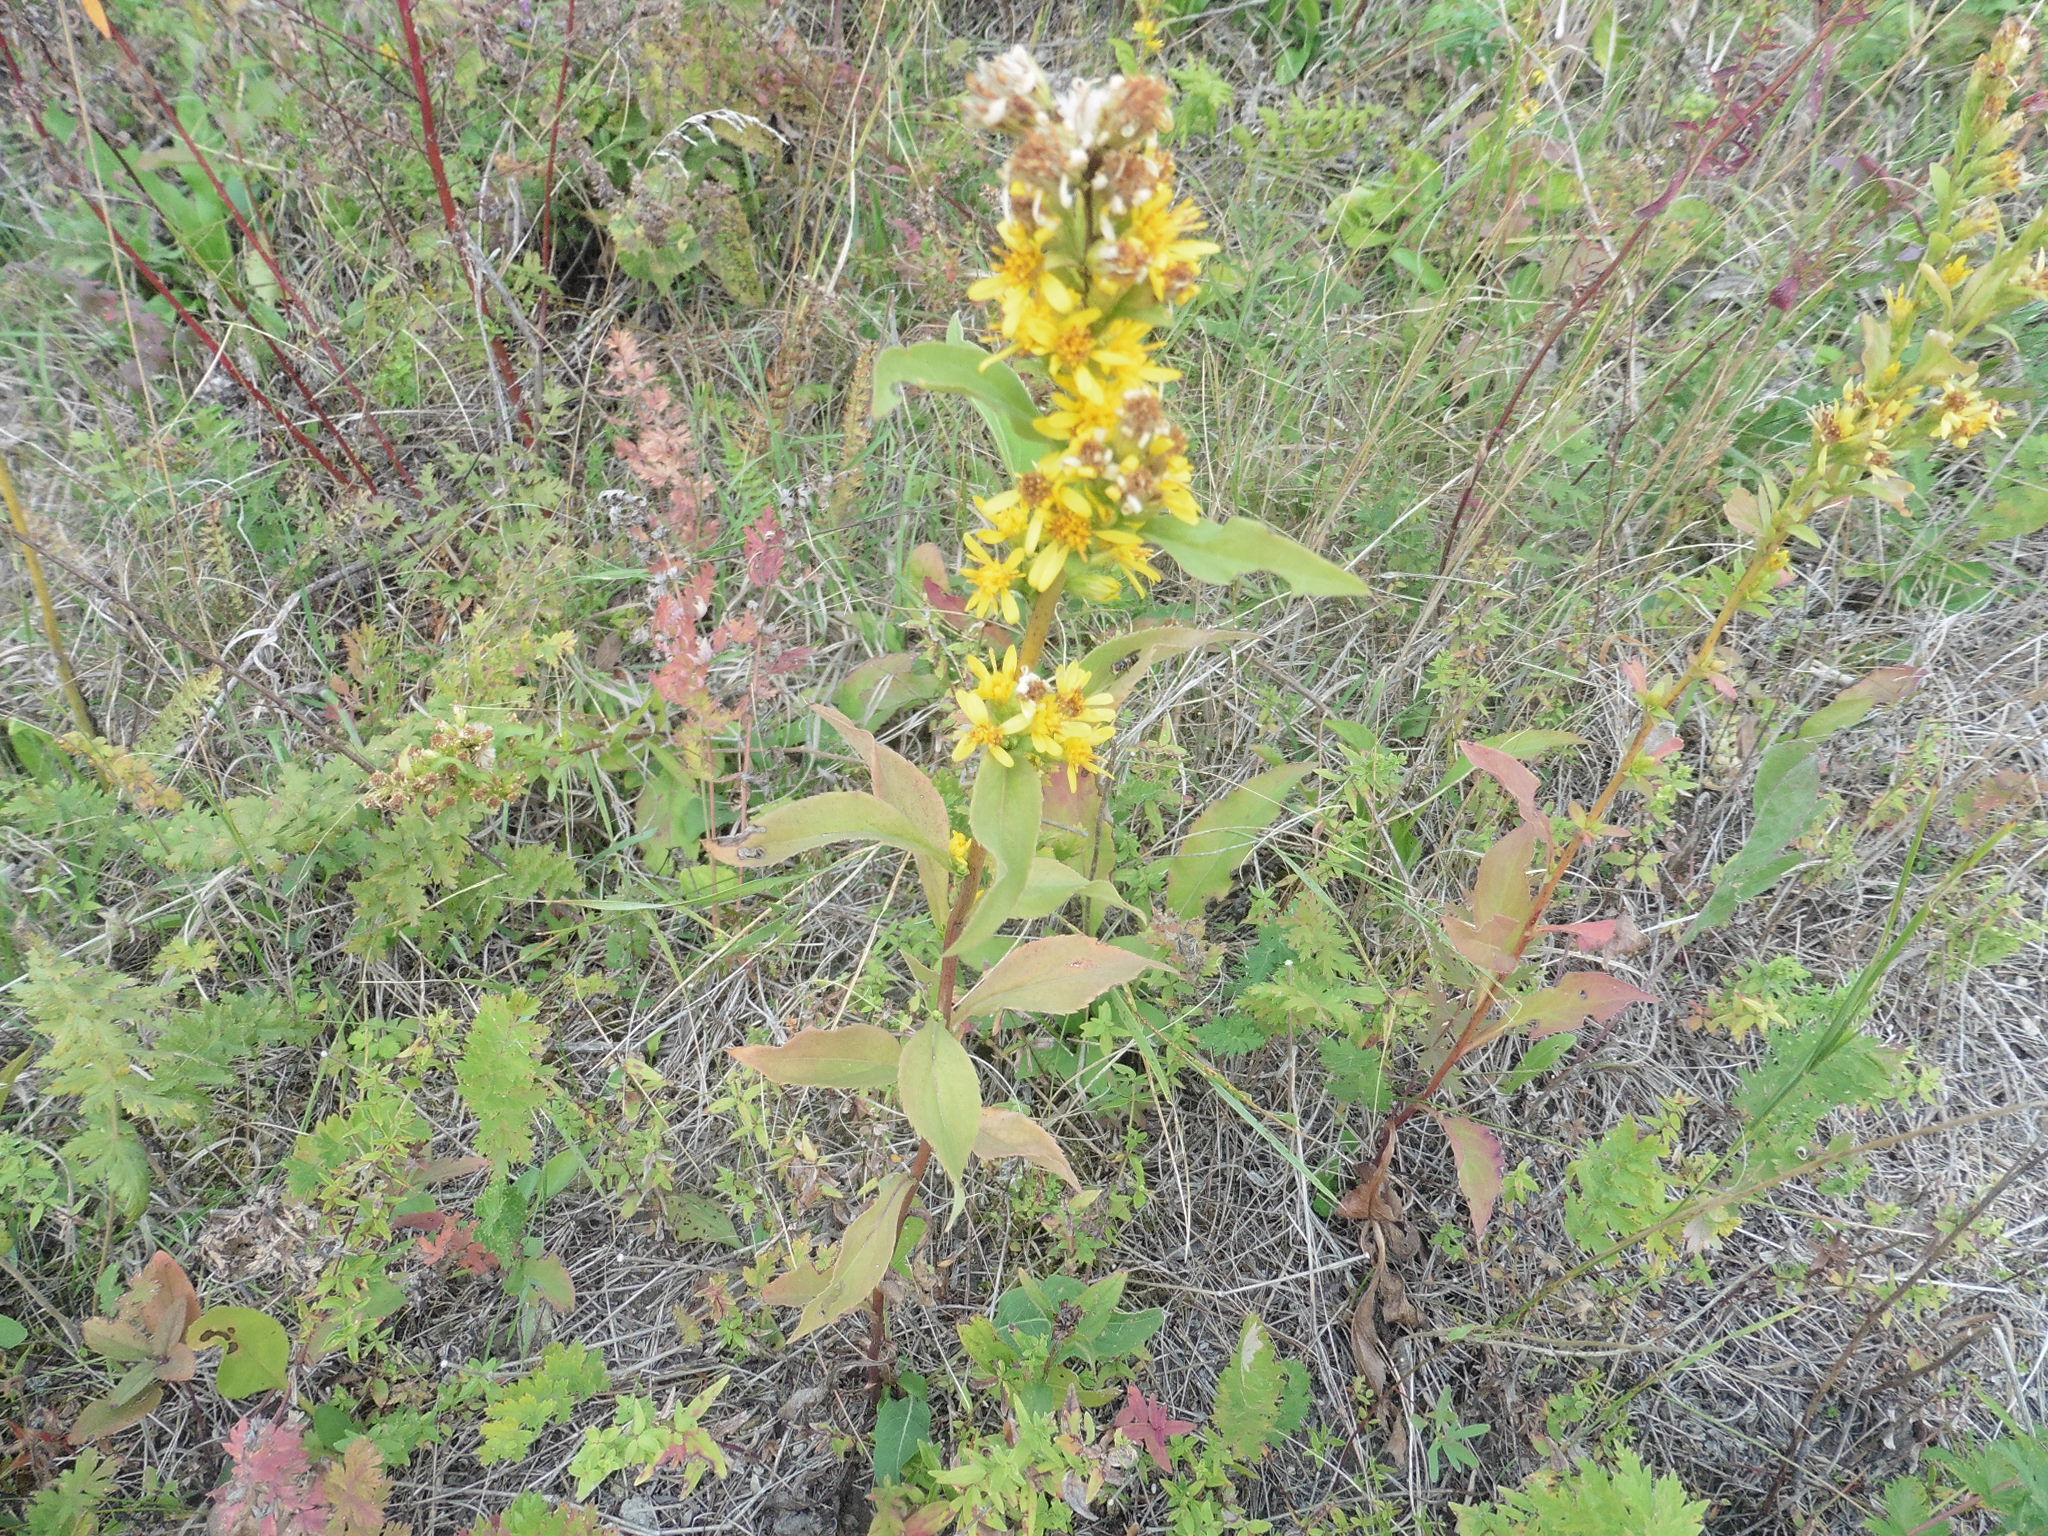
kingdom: Plantae
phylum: Tracheophyta
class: Magnoliopsida
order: Asterales
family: Asteraceae
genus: Solidago
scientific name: Solidago virgaurea
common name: Goldenrod
